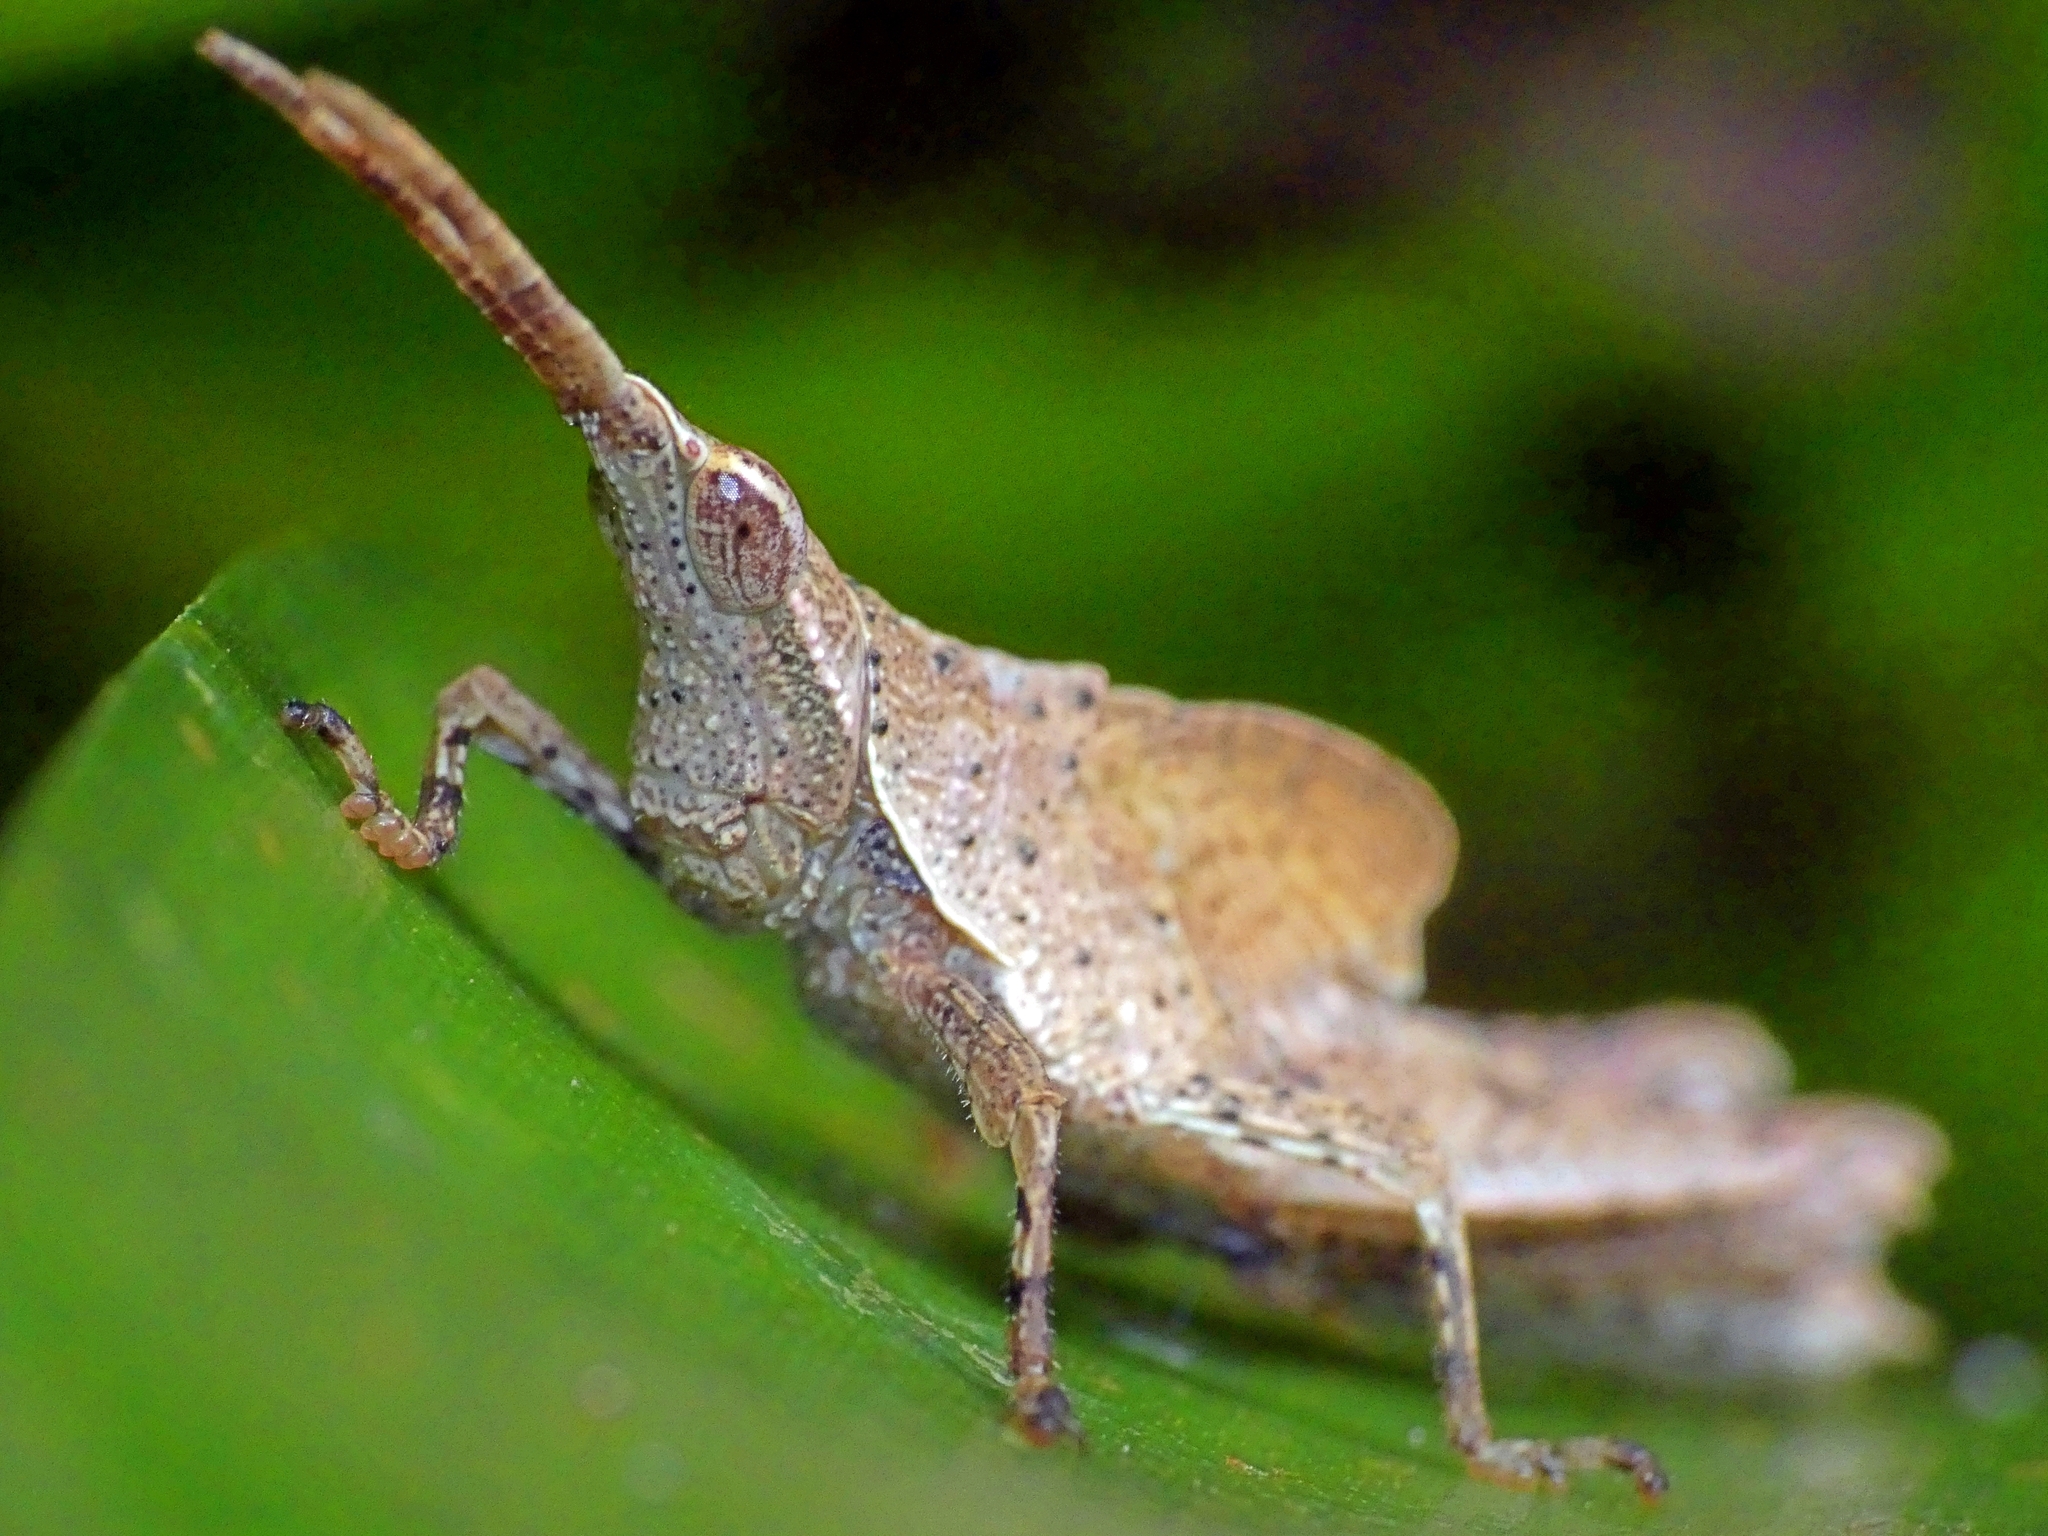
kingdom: Animalia
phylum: Arthropoda
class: Insecta
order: Orthoptera
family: Pyrgomorphidae
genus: Desmoptera
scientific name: Desmoptera truncatipennis
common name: Large forest pyrgomorph
